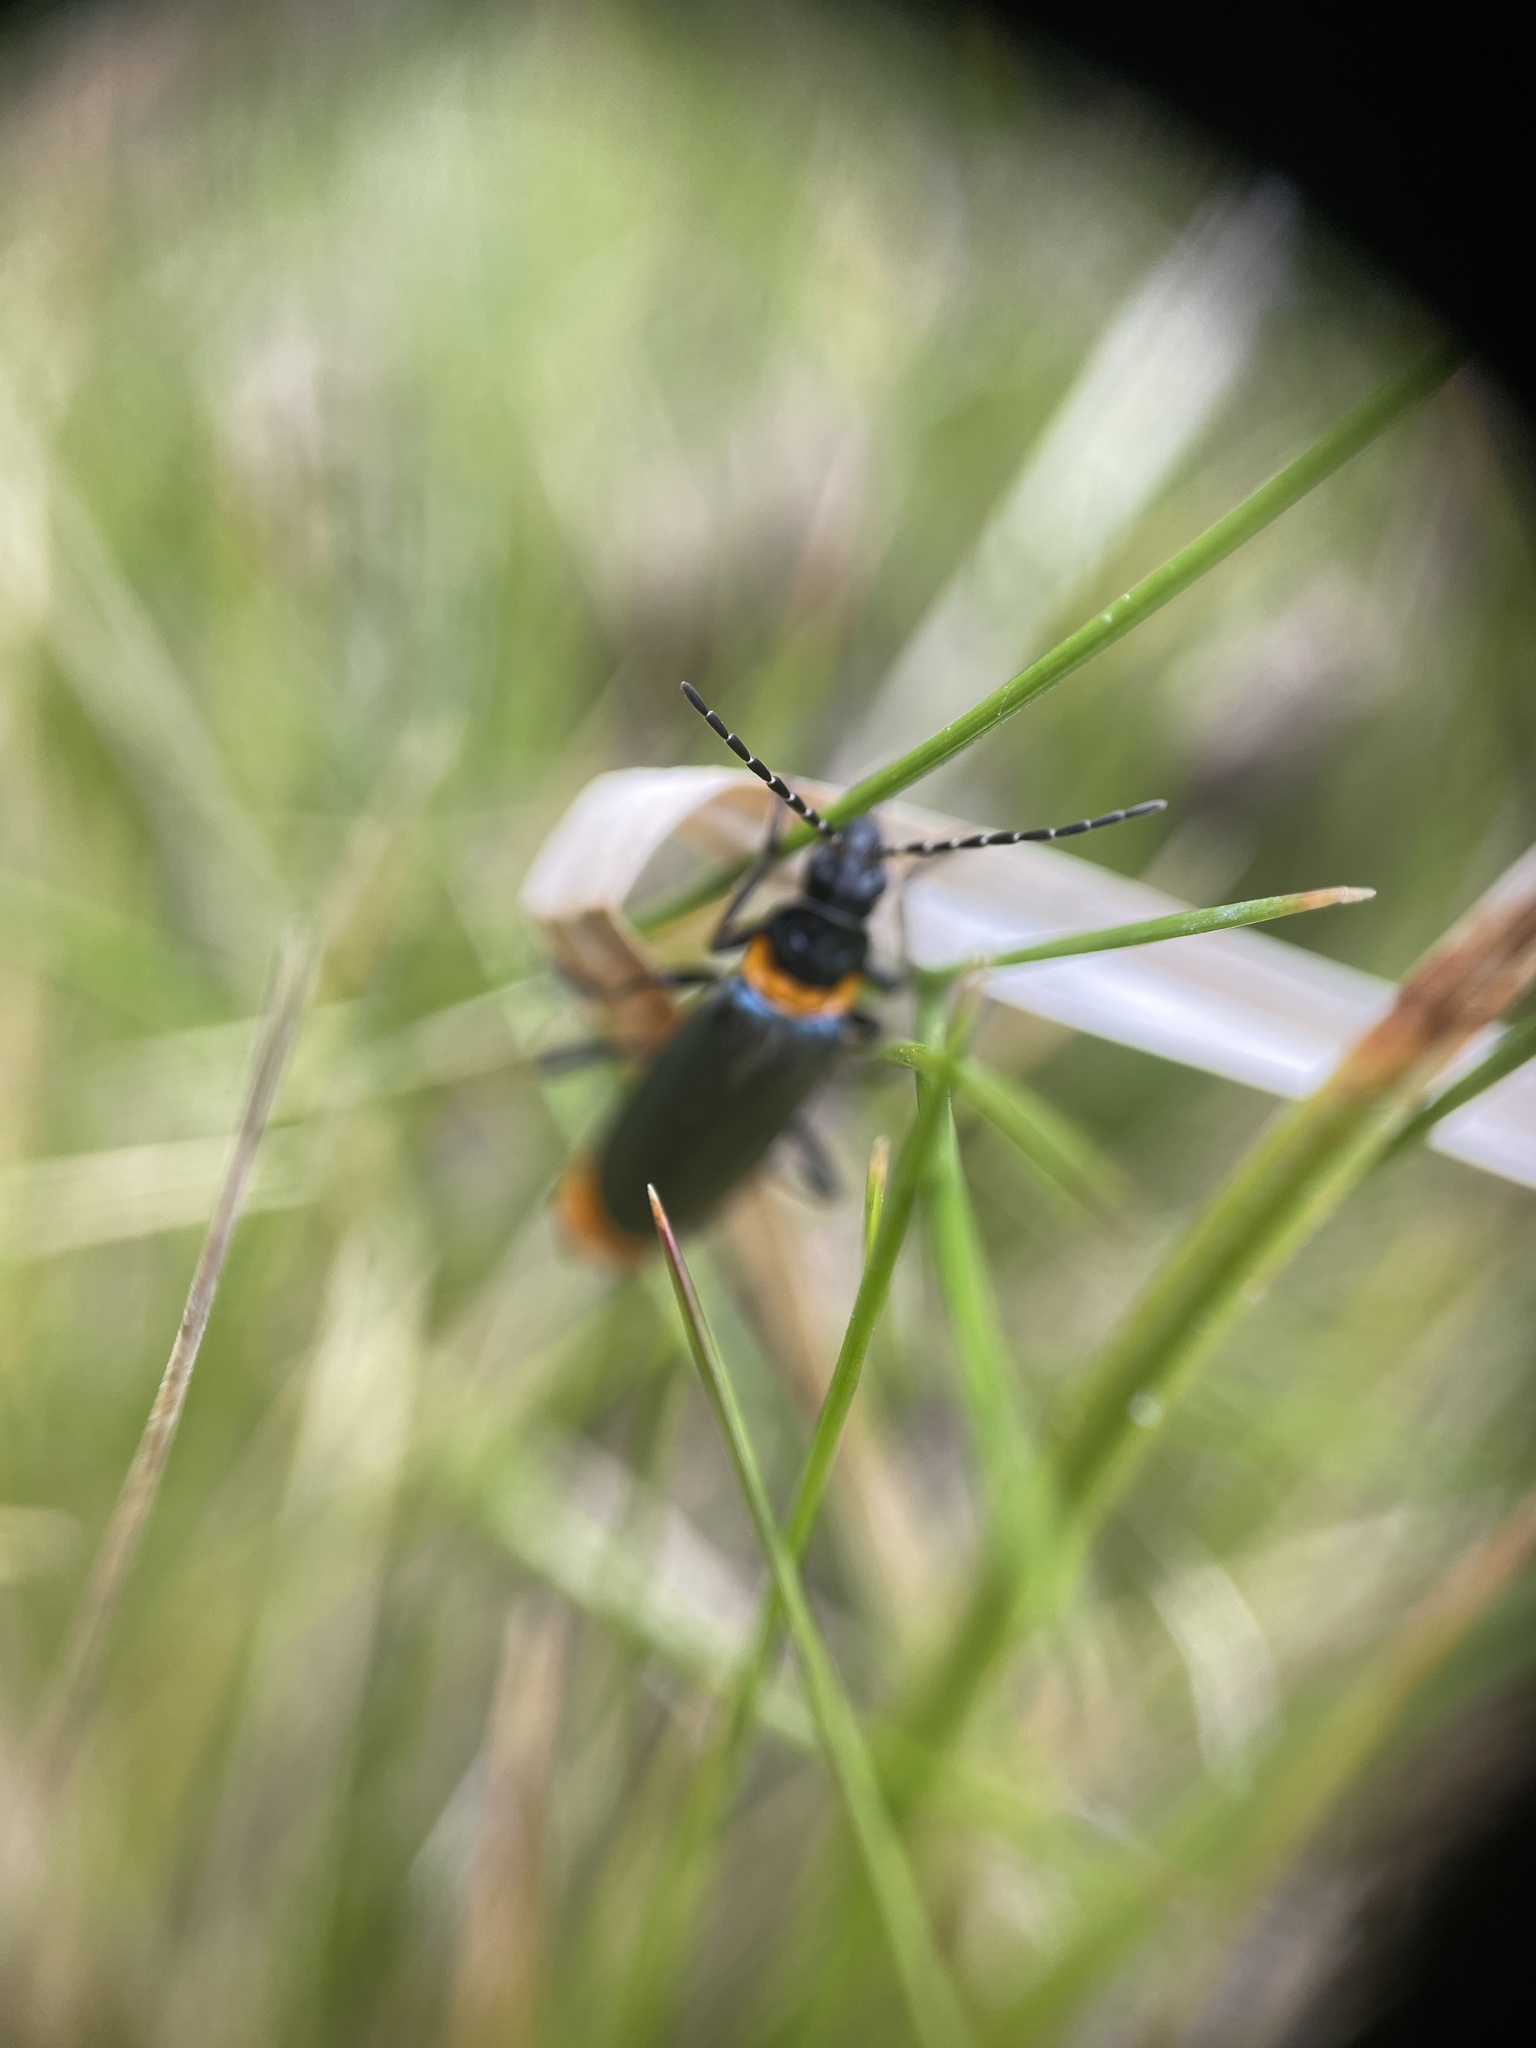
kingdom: Animalia
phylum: Arthropoda
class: Insecta
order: Coleoptera
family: Cantharidae
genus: Chauliognathus
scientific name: Chauliognathus
